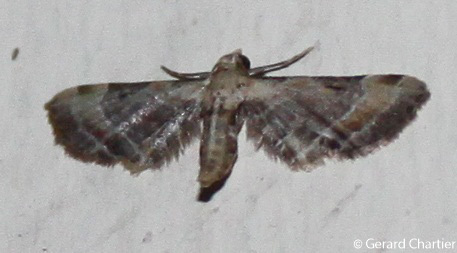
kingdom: Animalia
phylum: Arthropoda
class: Insecta
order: Lepidoptera
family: Geometridae
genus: Eupithecia
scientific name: Eupithecia melanolopha
